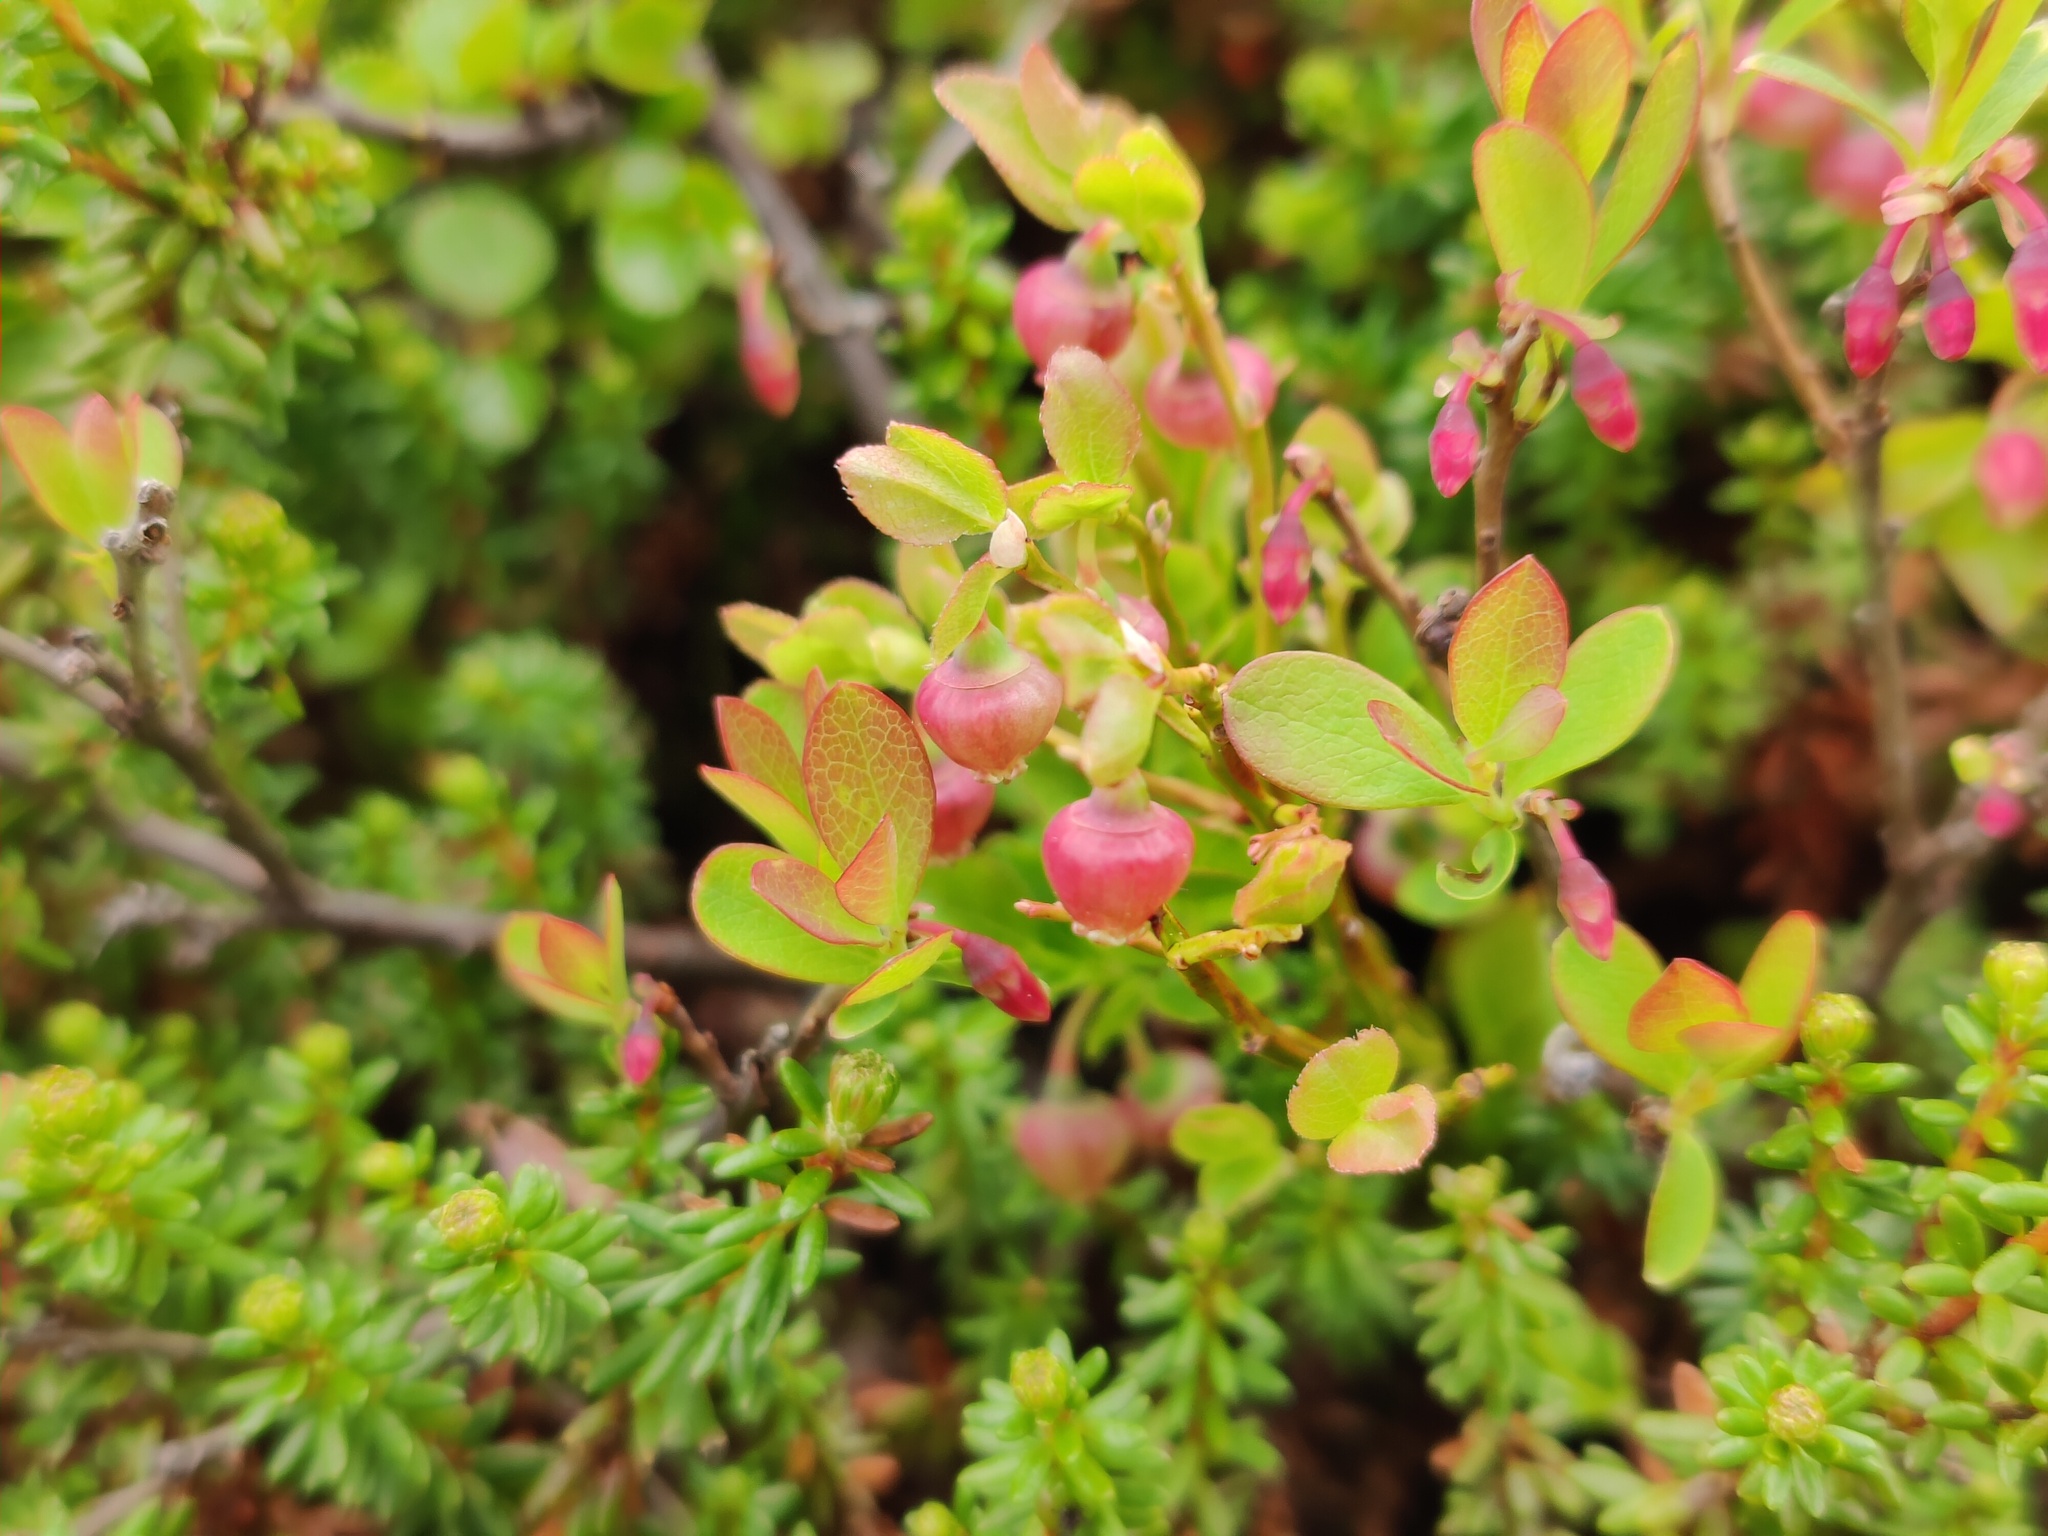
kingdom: Plantae
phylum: Tracheophyta
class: Magnoliopsida
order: Ericales
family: Ericaceae
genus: Vaccinium
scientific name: Vaccinium uliginosum
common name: Bog bilberry
